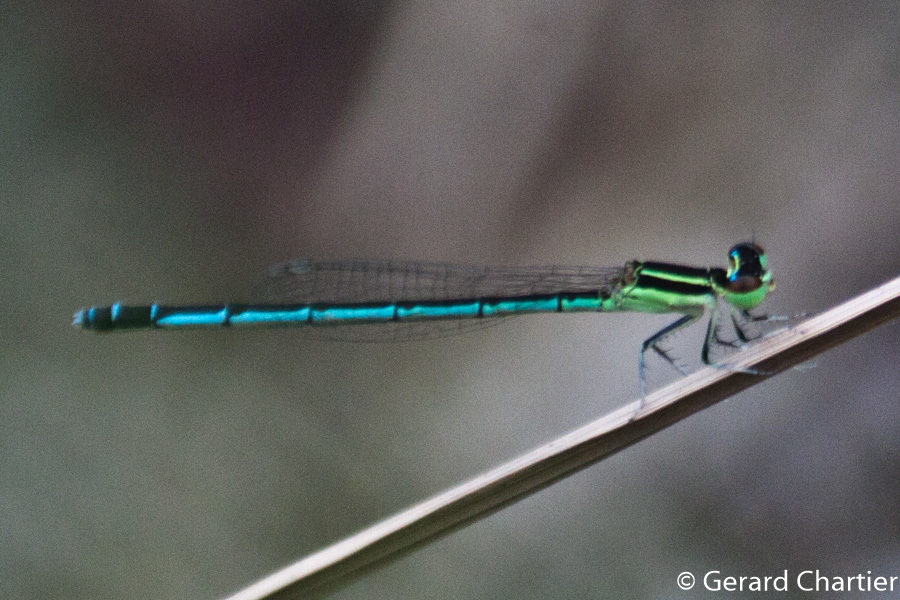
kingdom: Animalia
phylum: Arthropoda
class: Insecta
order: Odonata
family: Coenagrionidae
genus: Agriocnemis
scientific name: Agriocnemis nana
